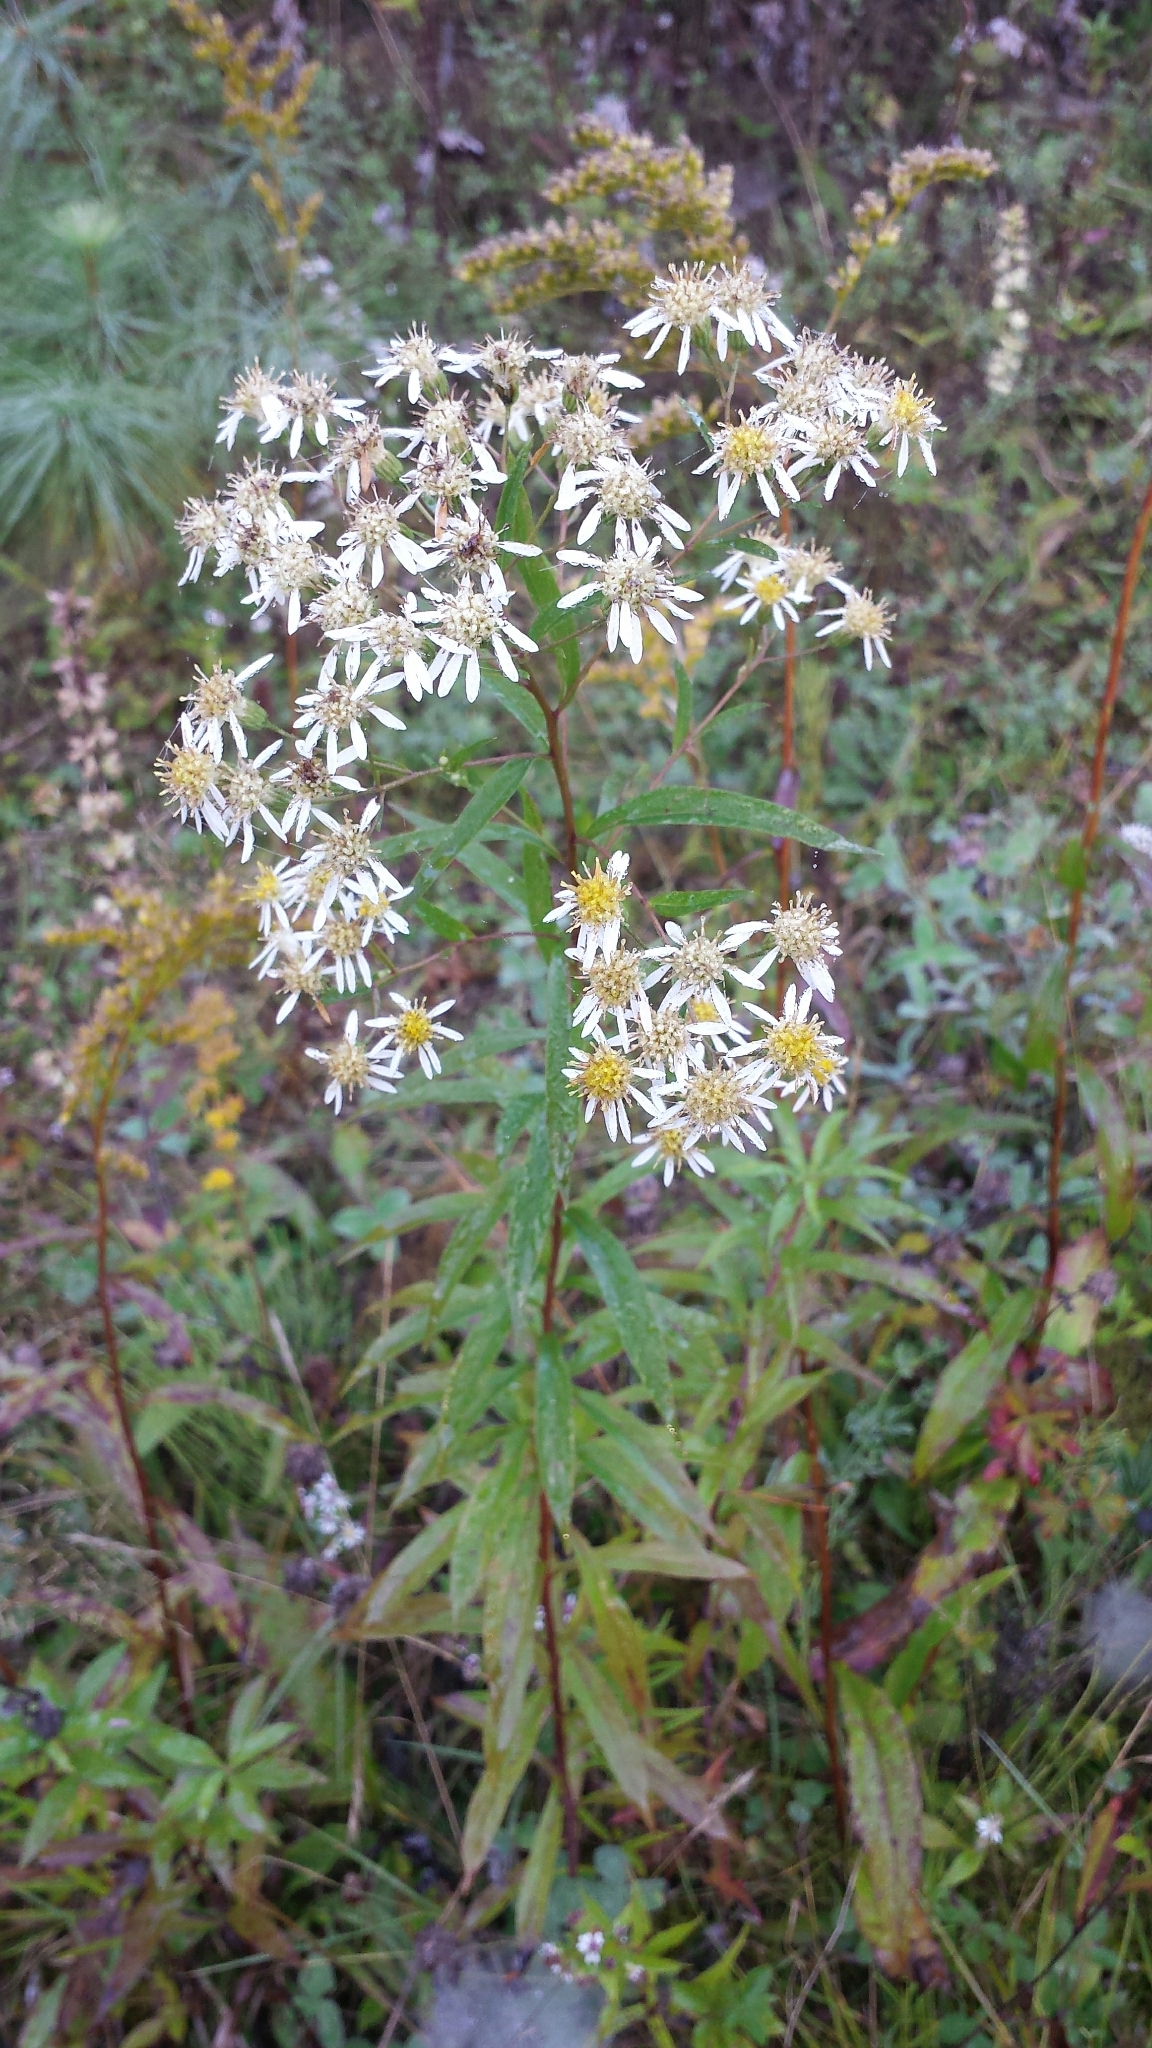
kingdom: Plantae
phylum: Tracheophyta
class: Magnoliopsida
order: Asterales
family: Asteraceae
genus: Doellingeria
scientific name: Doellingeria umbellata
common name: Flat-top white aster
